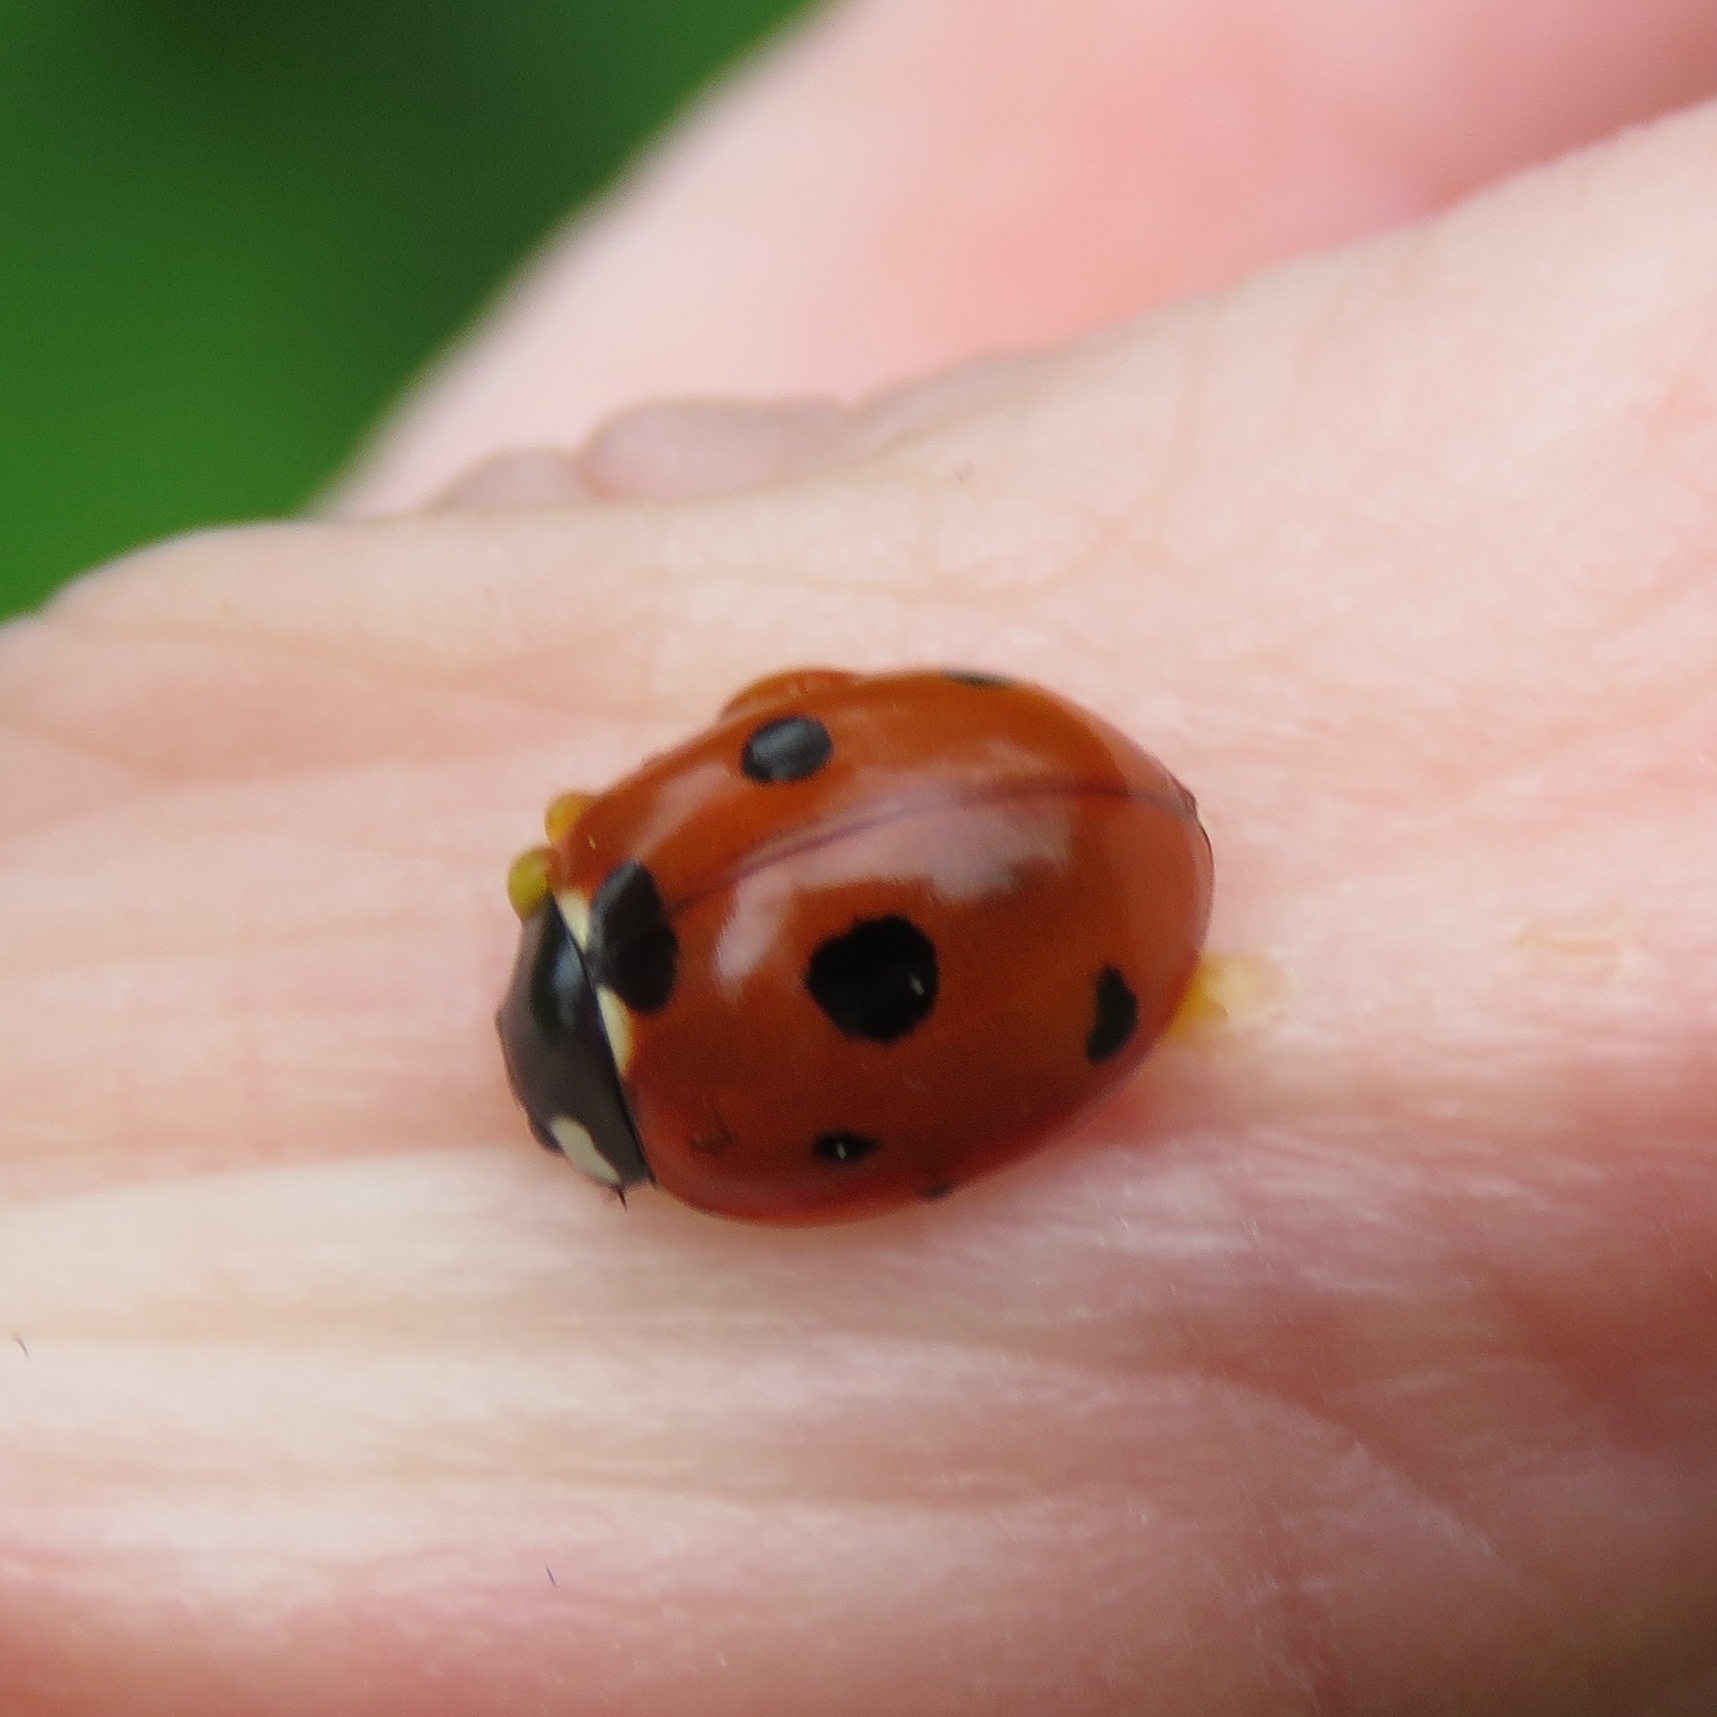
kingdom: Animalia
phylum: Arthropoda
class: Insecta
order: Coleoptera
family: Coccinellidae
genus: Coccinella
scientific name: Coccinella septempunctata
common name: Sevenspotted lady beetle
